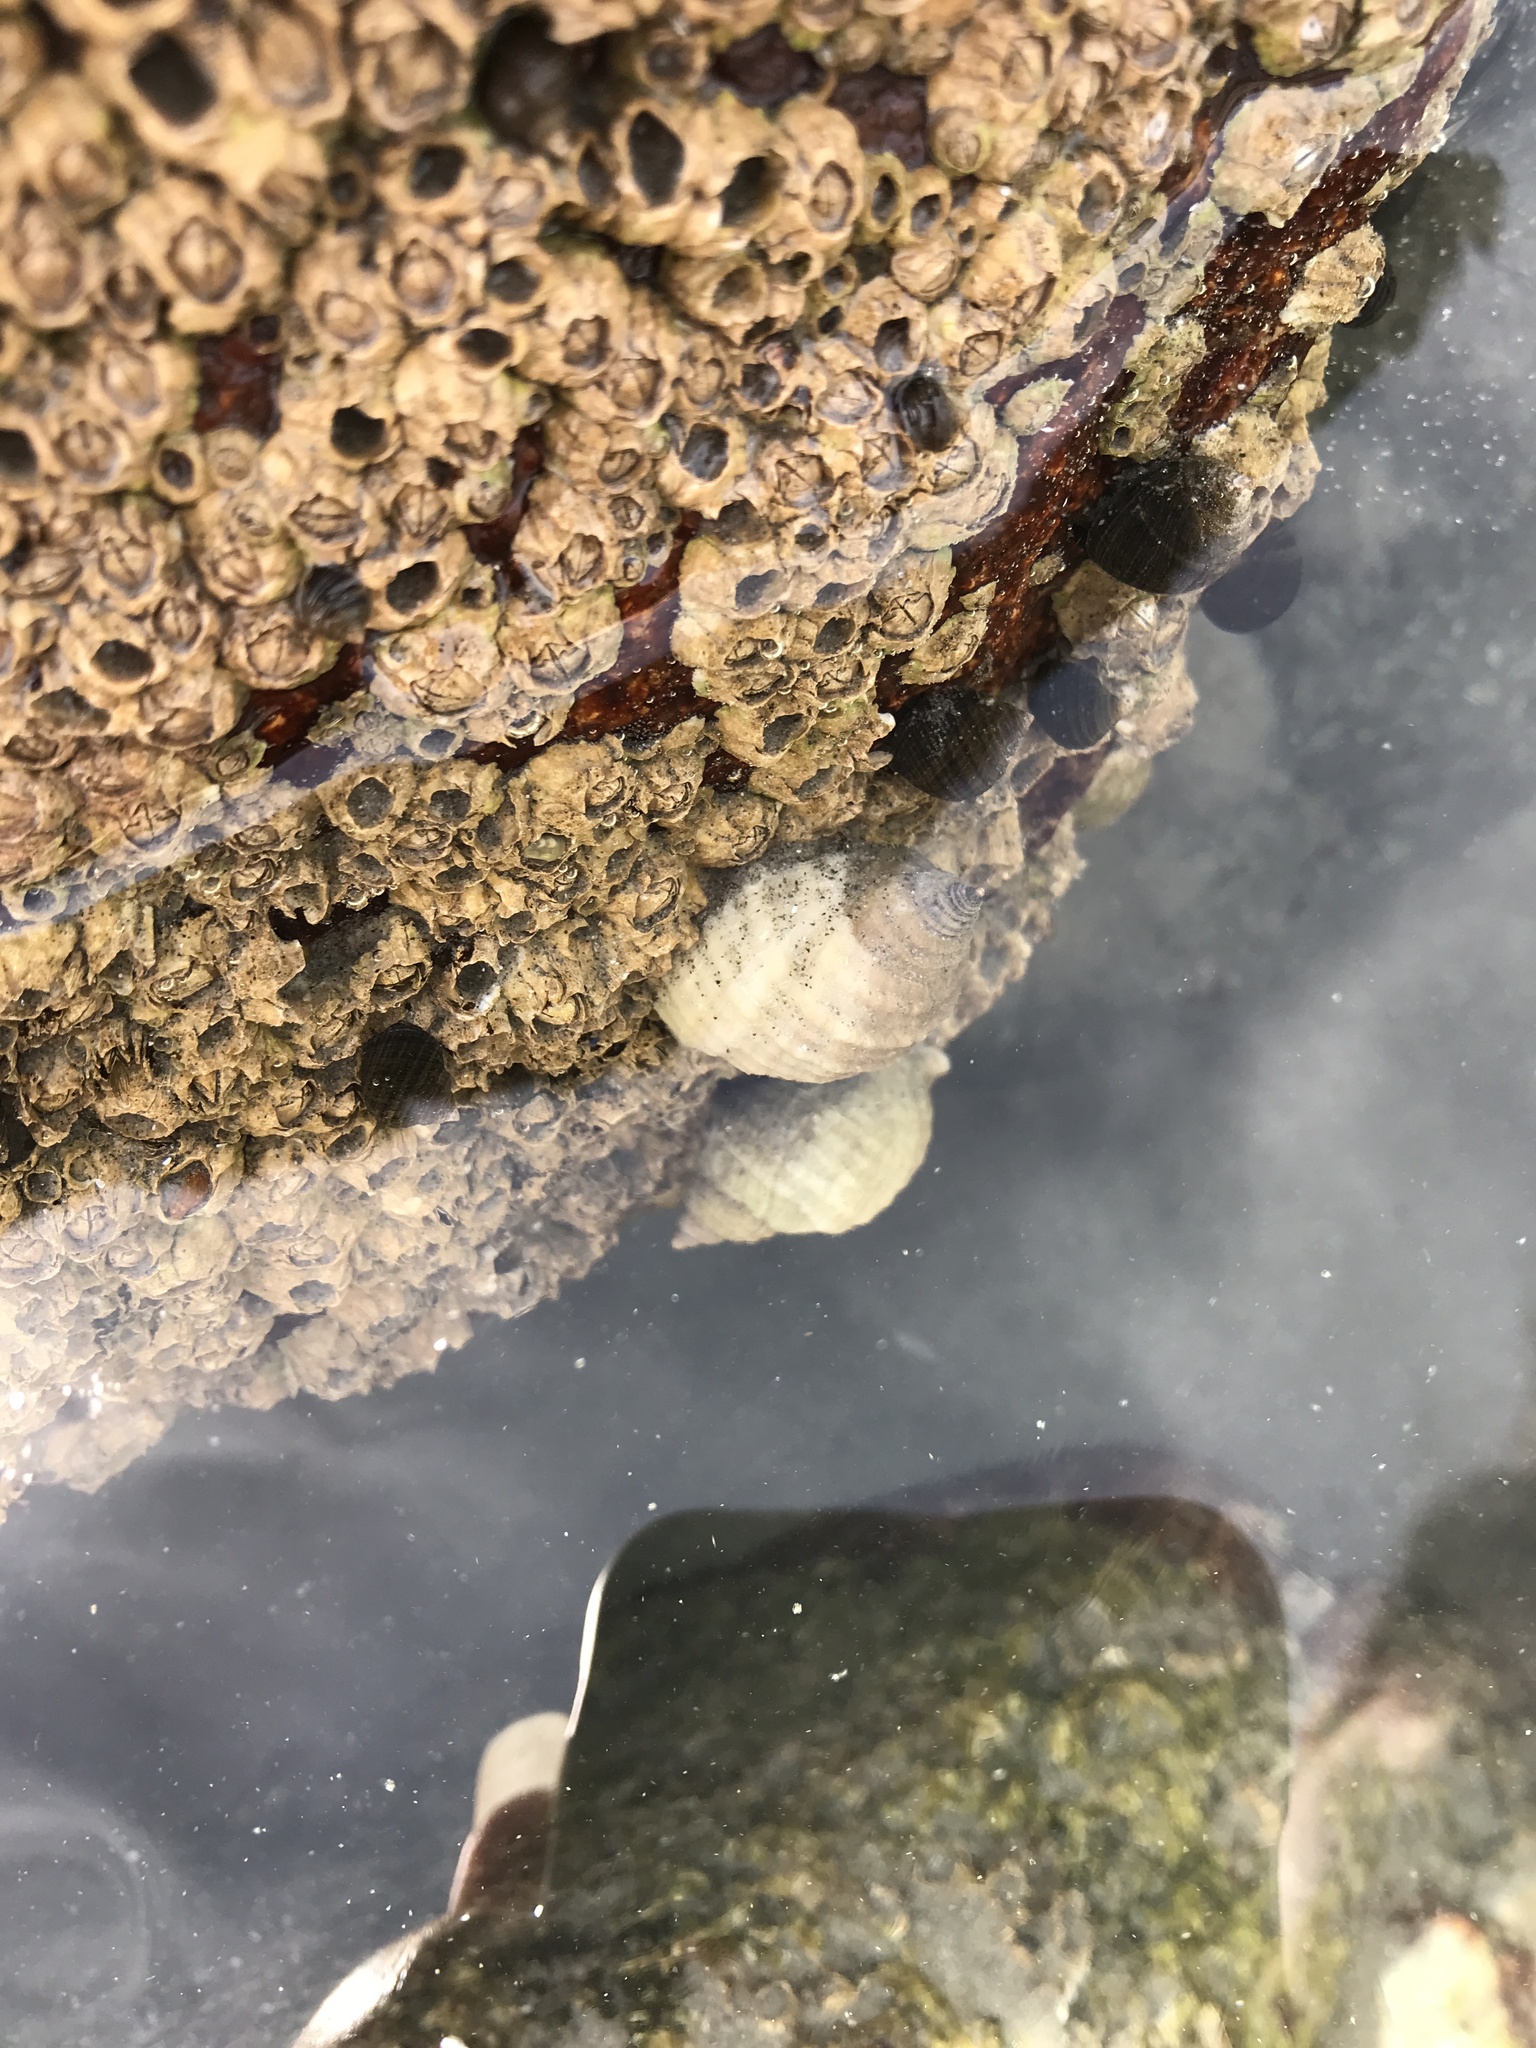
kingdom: Animalia
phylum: Mollusca
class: Gastropoda
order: Neogastropoda
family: Muricidae
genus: Nucella
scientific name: Nucella lapillus
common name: Dog whelk
